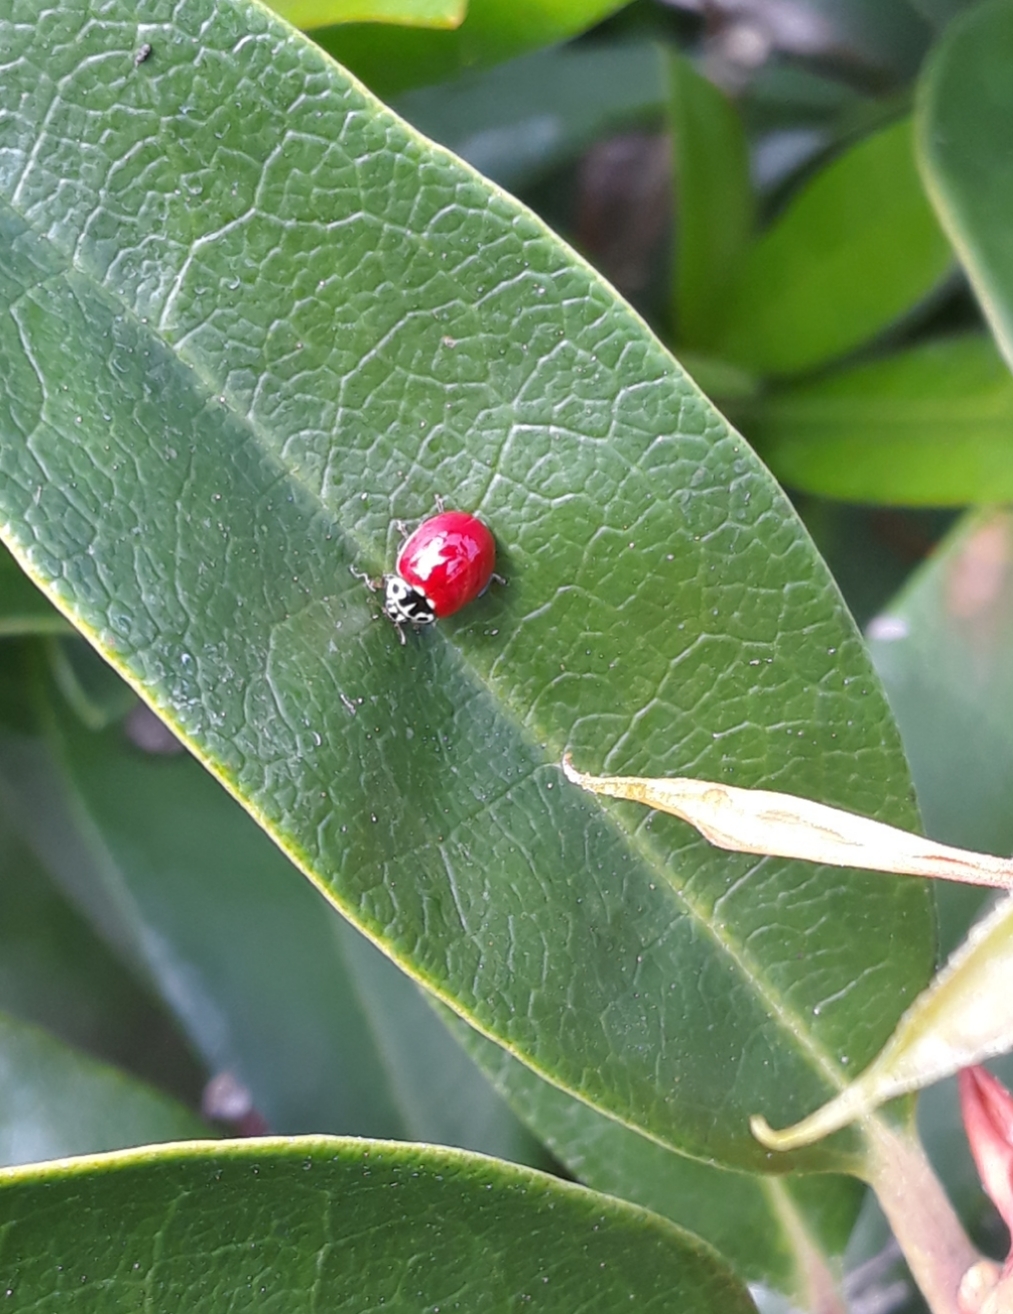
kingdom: Animalia
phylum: Arthropoda
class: Insecta
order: Coleoptera
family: Coccinellidae
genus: Cycloneda
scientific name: Cycloneda polita
